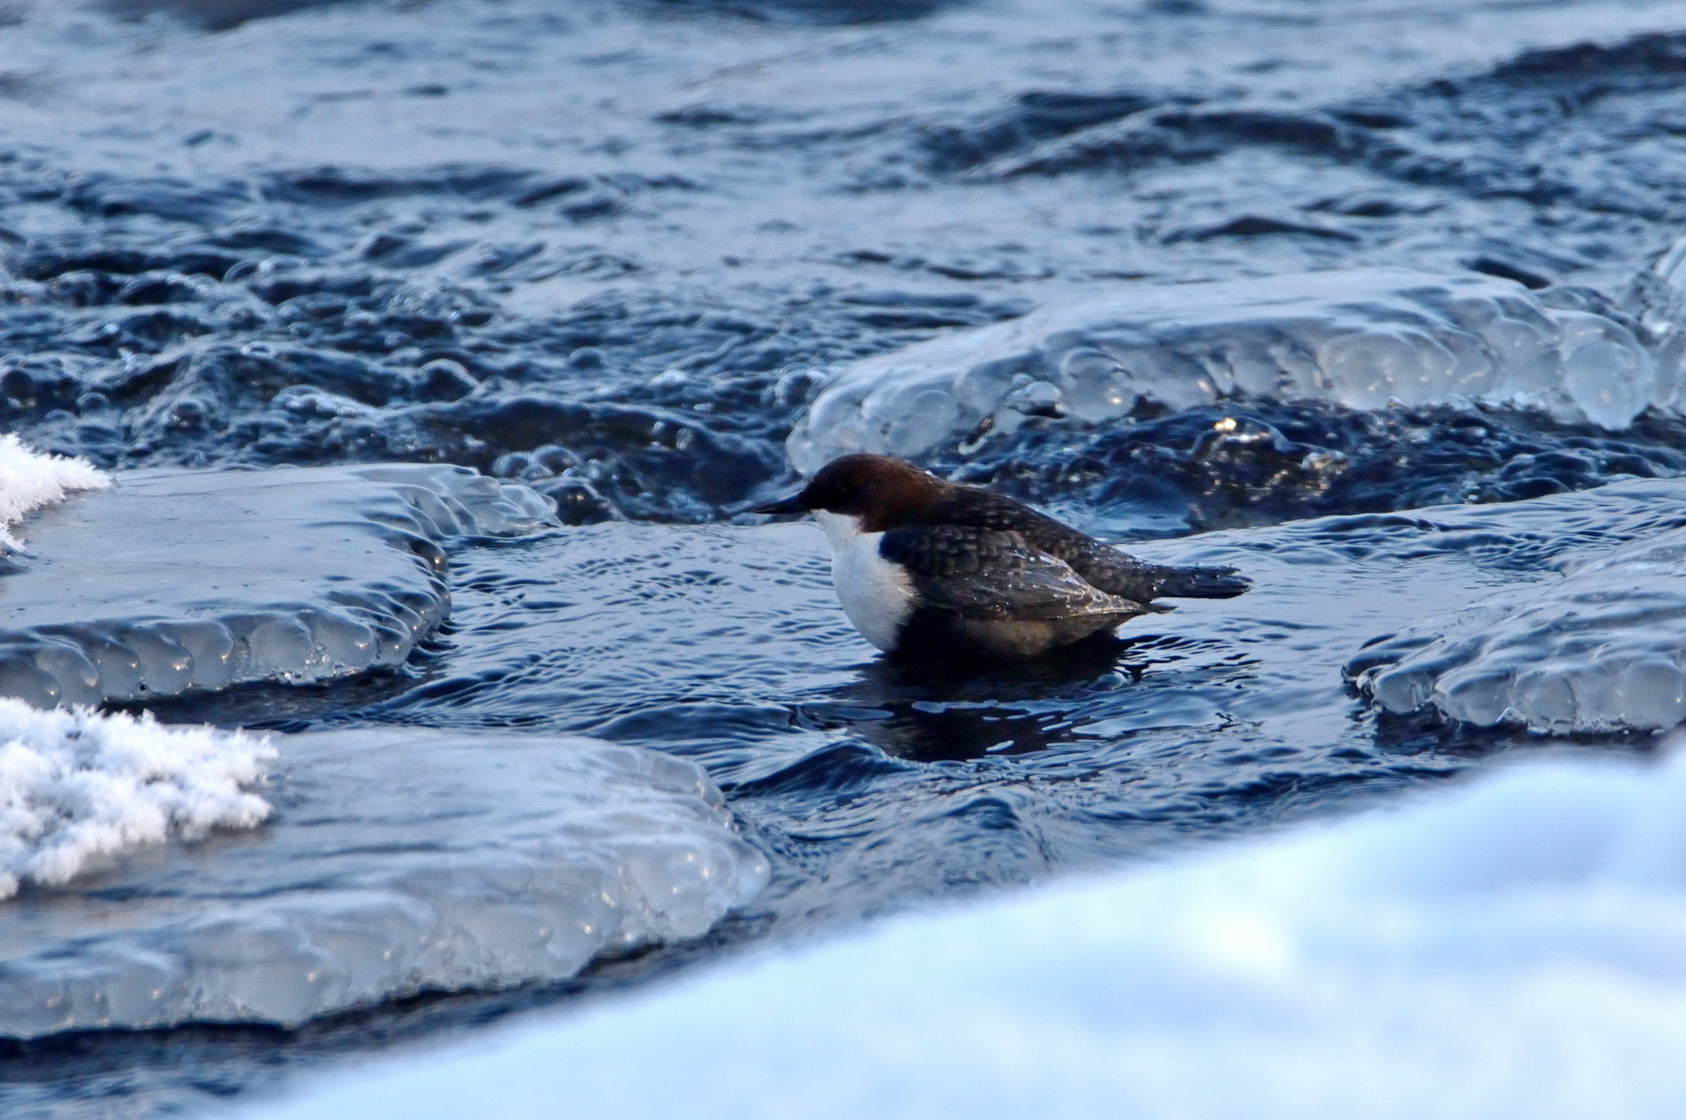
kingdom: Animalia
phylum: Chordata
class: Aves
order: Passeriformes
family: Cinclidae
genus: Cinclus
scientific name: Cinclus cinclus
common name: White-throated dipper
